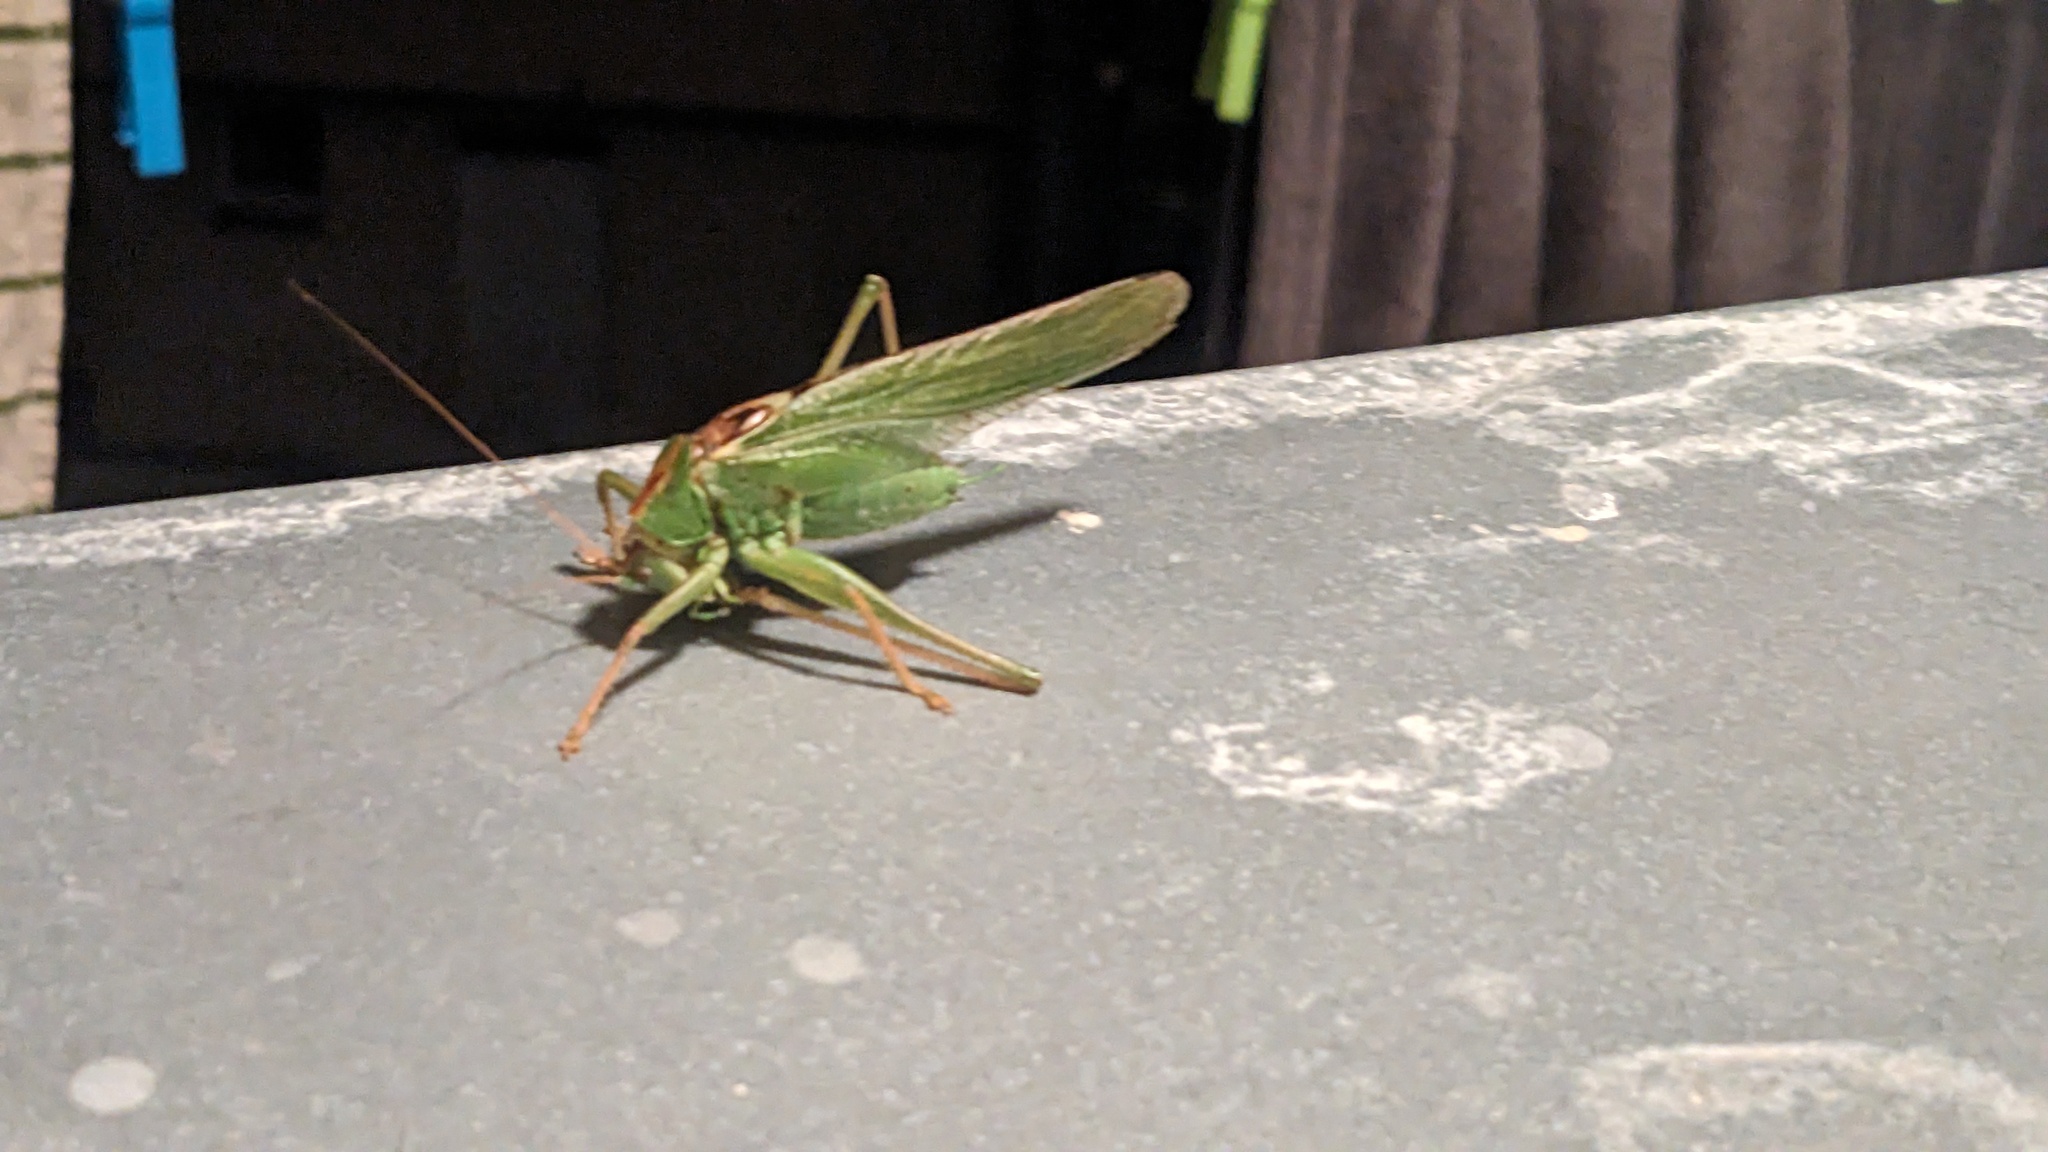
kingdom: Animalia
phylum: Arthropoda
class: Insecta
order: Orthoptera
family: Tettigoniidae
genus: Tettigonia
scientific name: Tettigonia viridissima
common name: Great green bush-cricket
